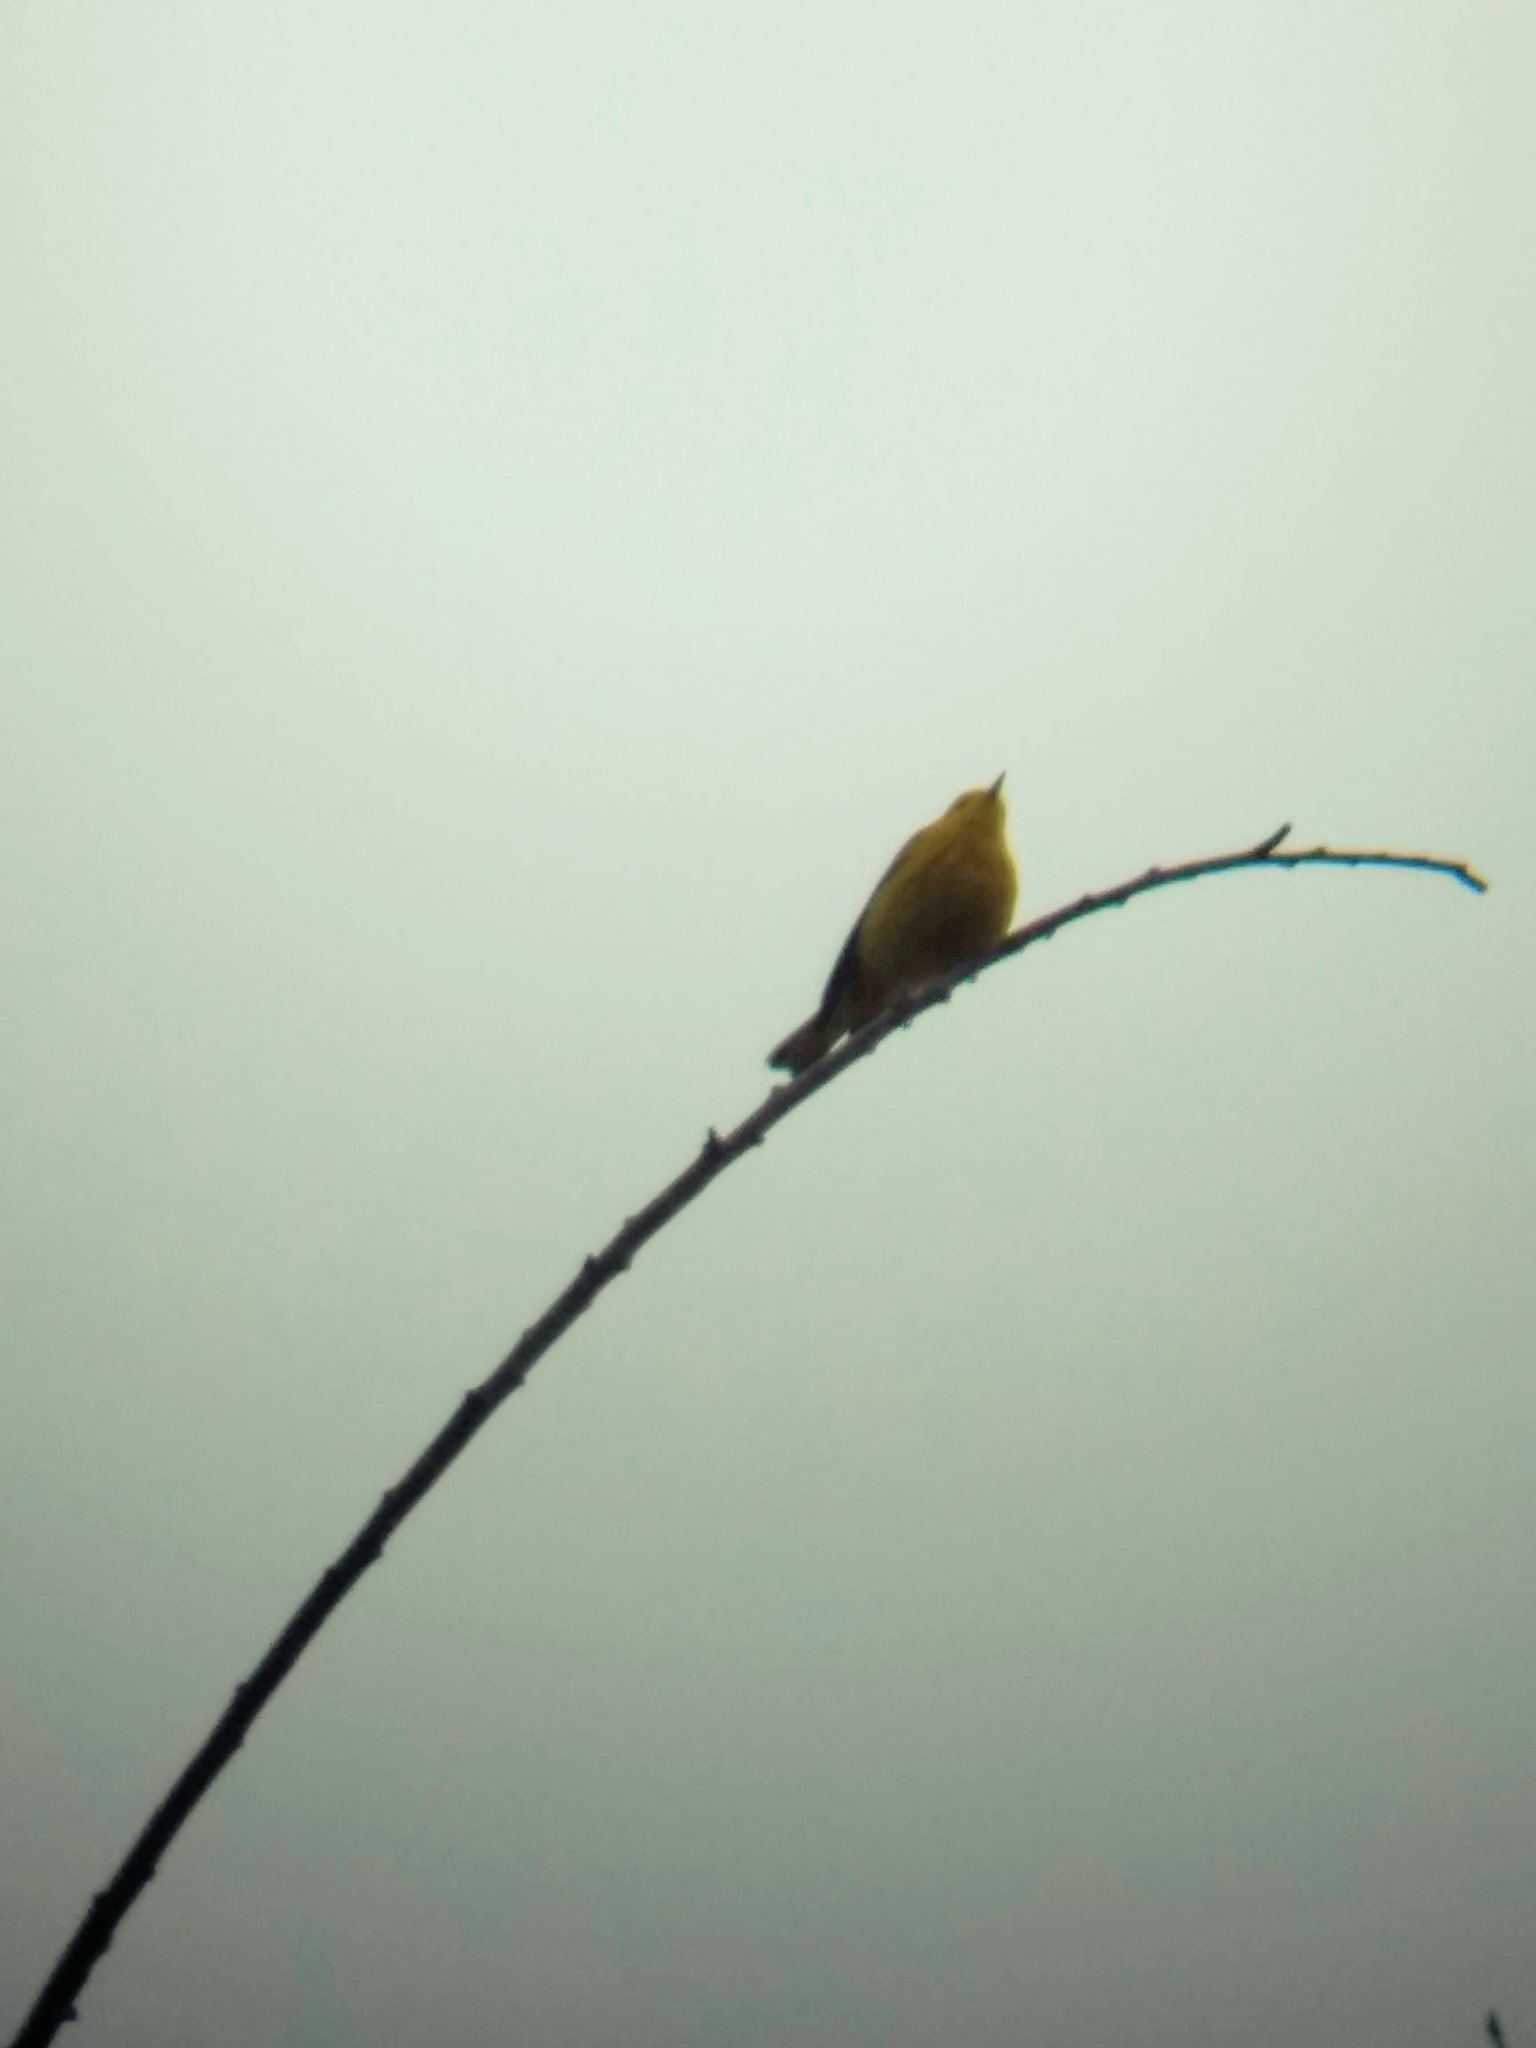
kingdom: Animalia
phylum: Chordata
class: Aves
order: Passeriformes
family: Parulidae
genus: Setophaga
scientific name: Setophaga petechia
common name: Yellow warbler
